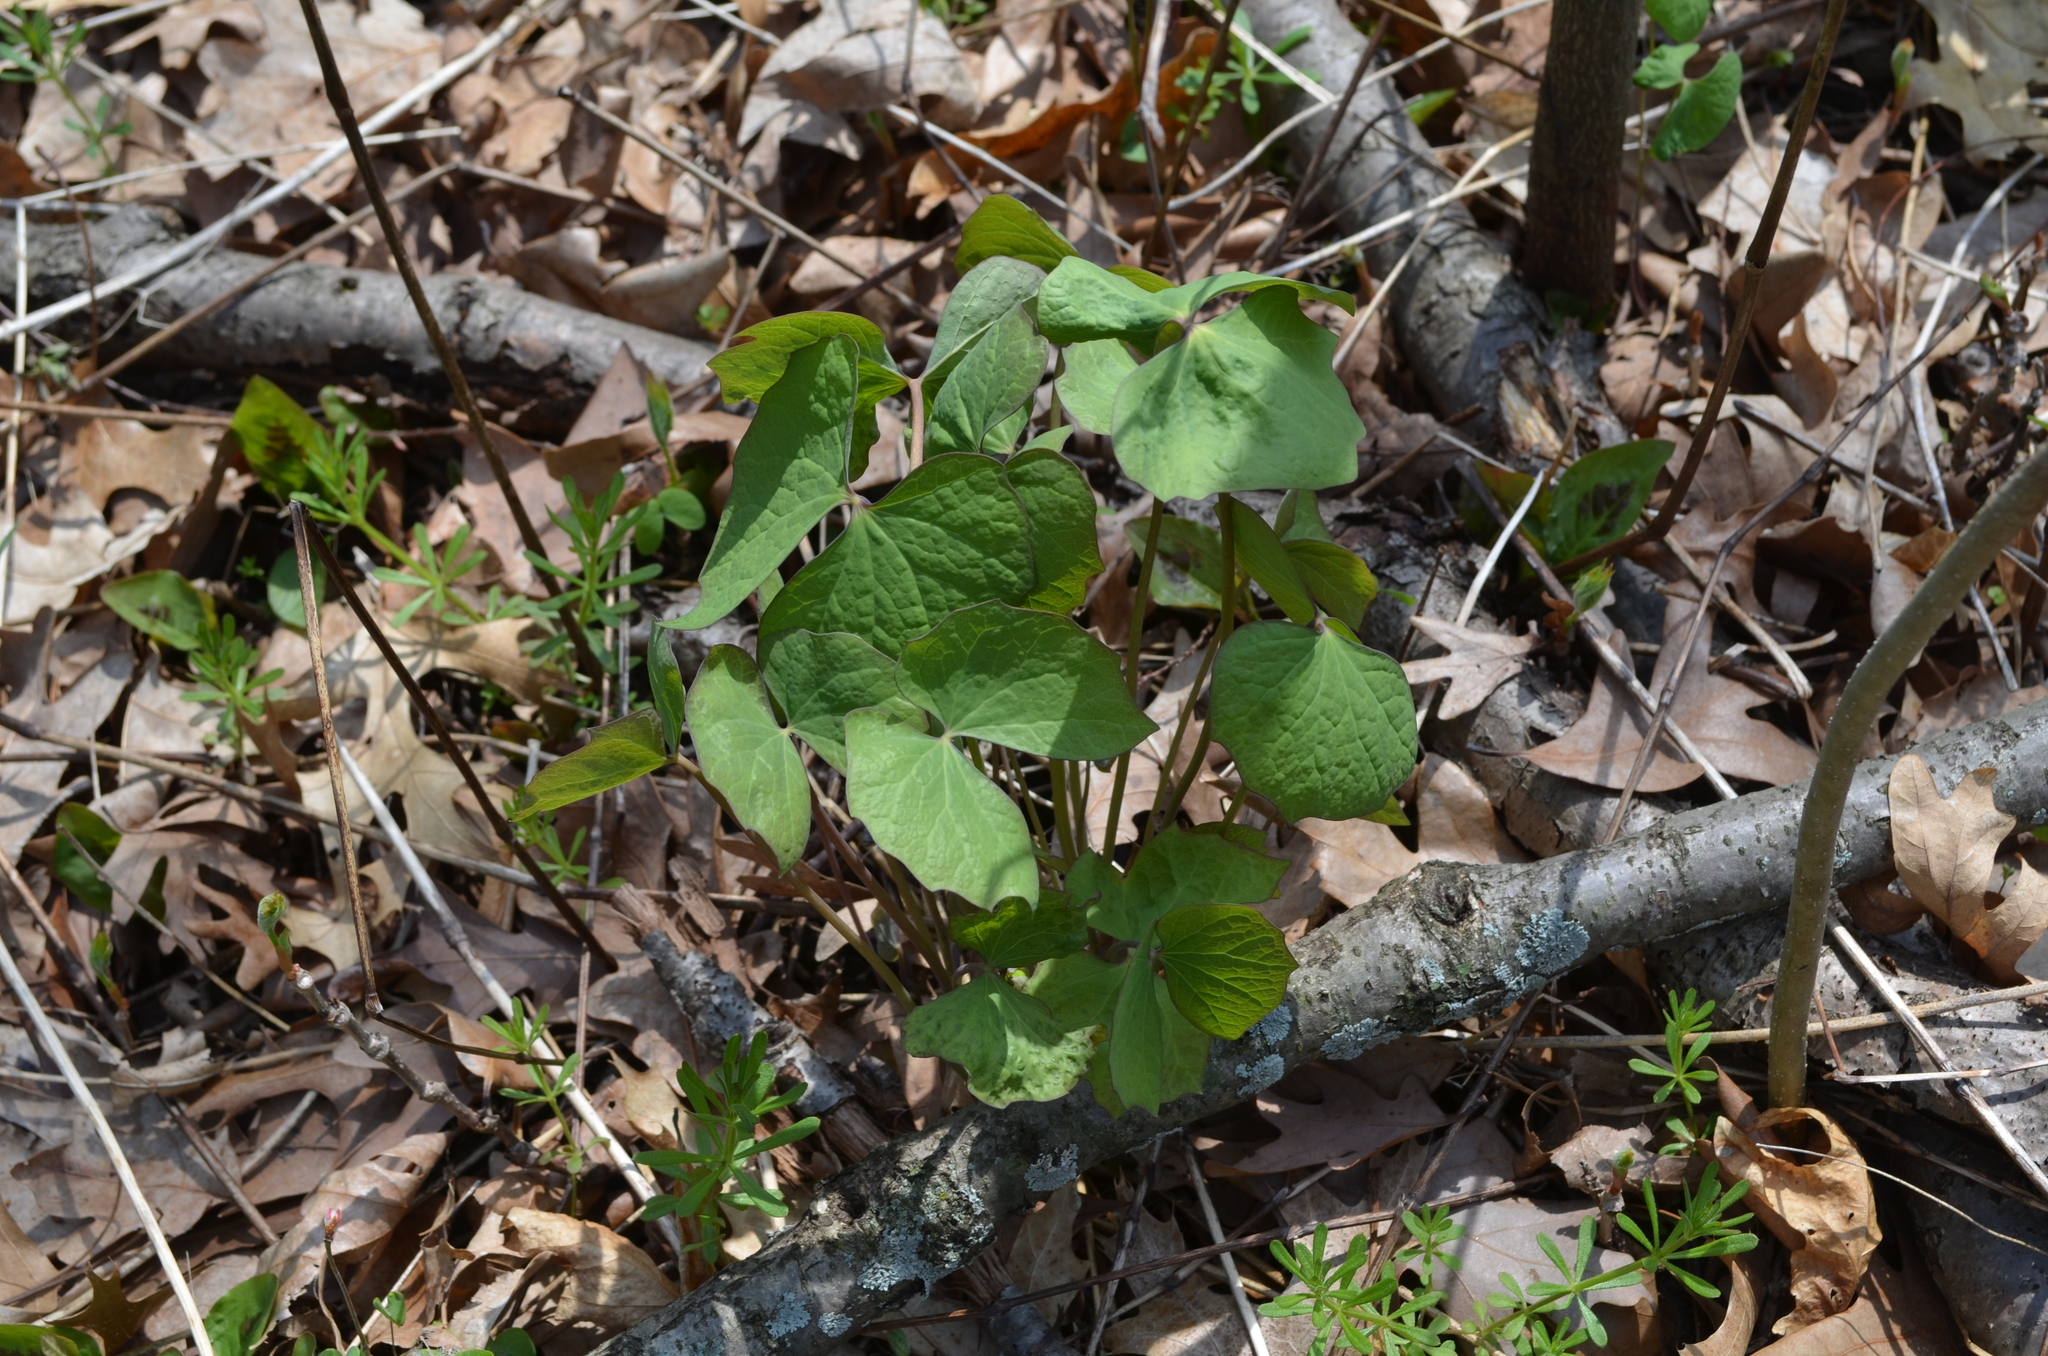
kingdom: Plantae
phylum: Tracheophyta
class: Magnoliopsida
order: Ranunculales
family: Berberidaceae
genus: Jeffersonia
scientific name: Jeffersonia diphylla
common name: Rheumatism-root
